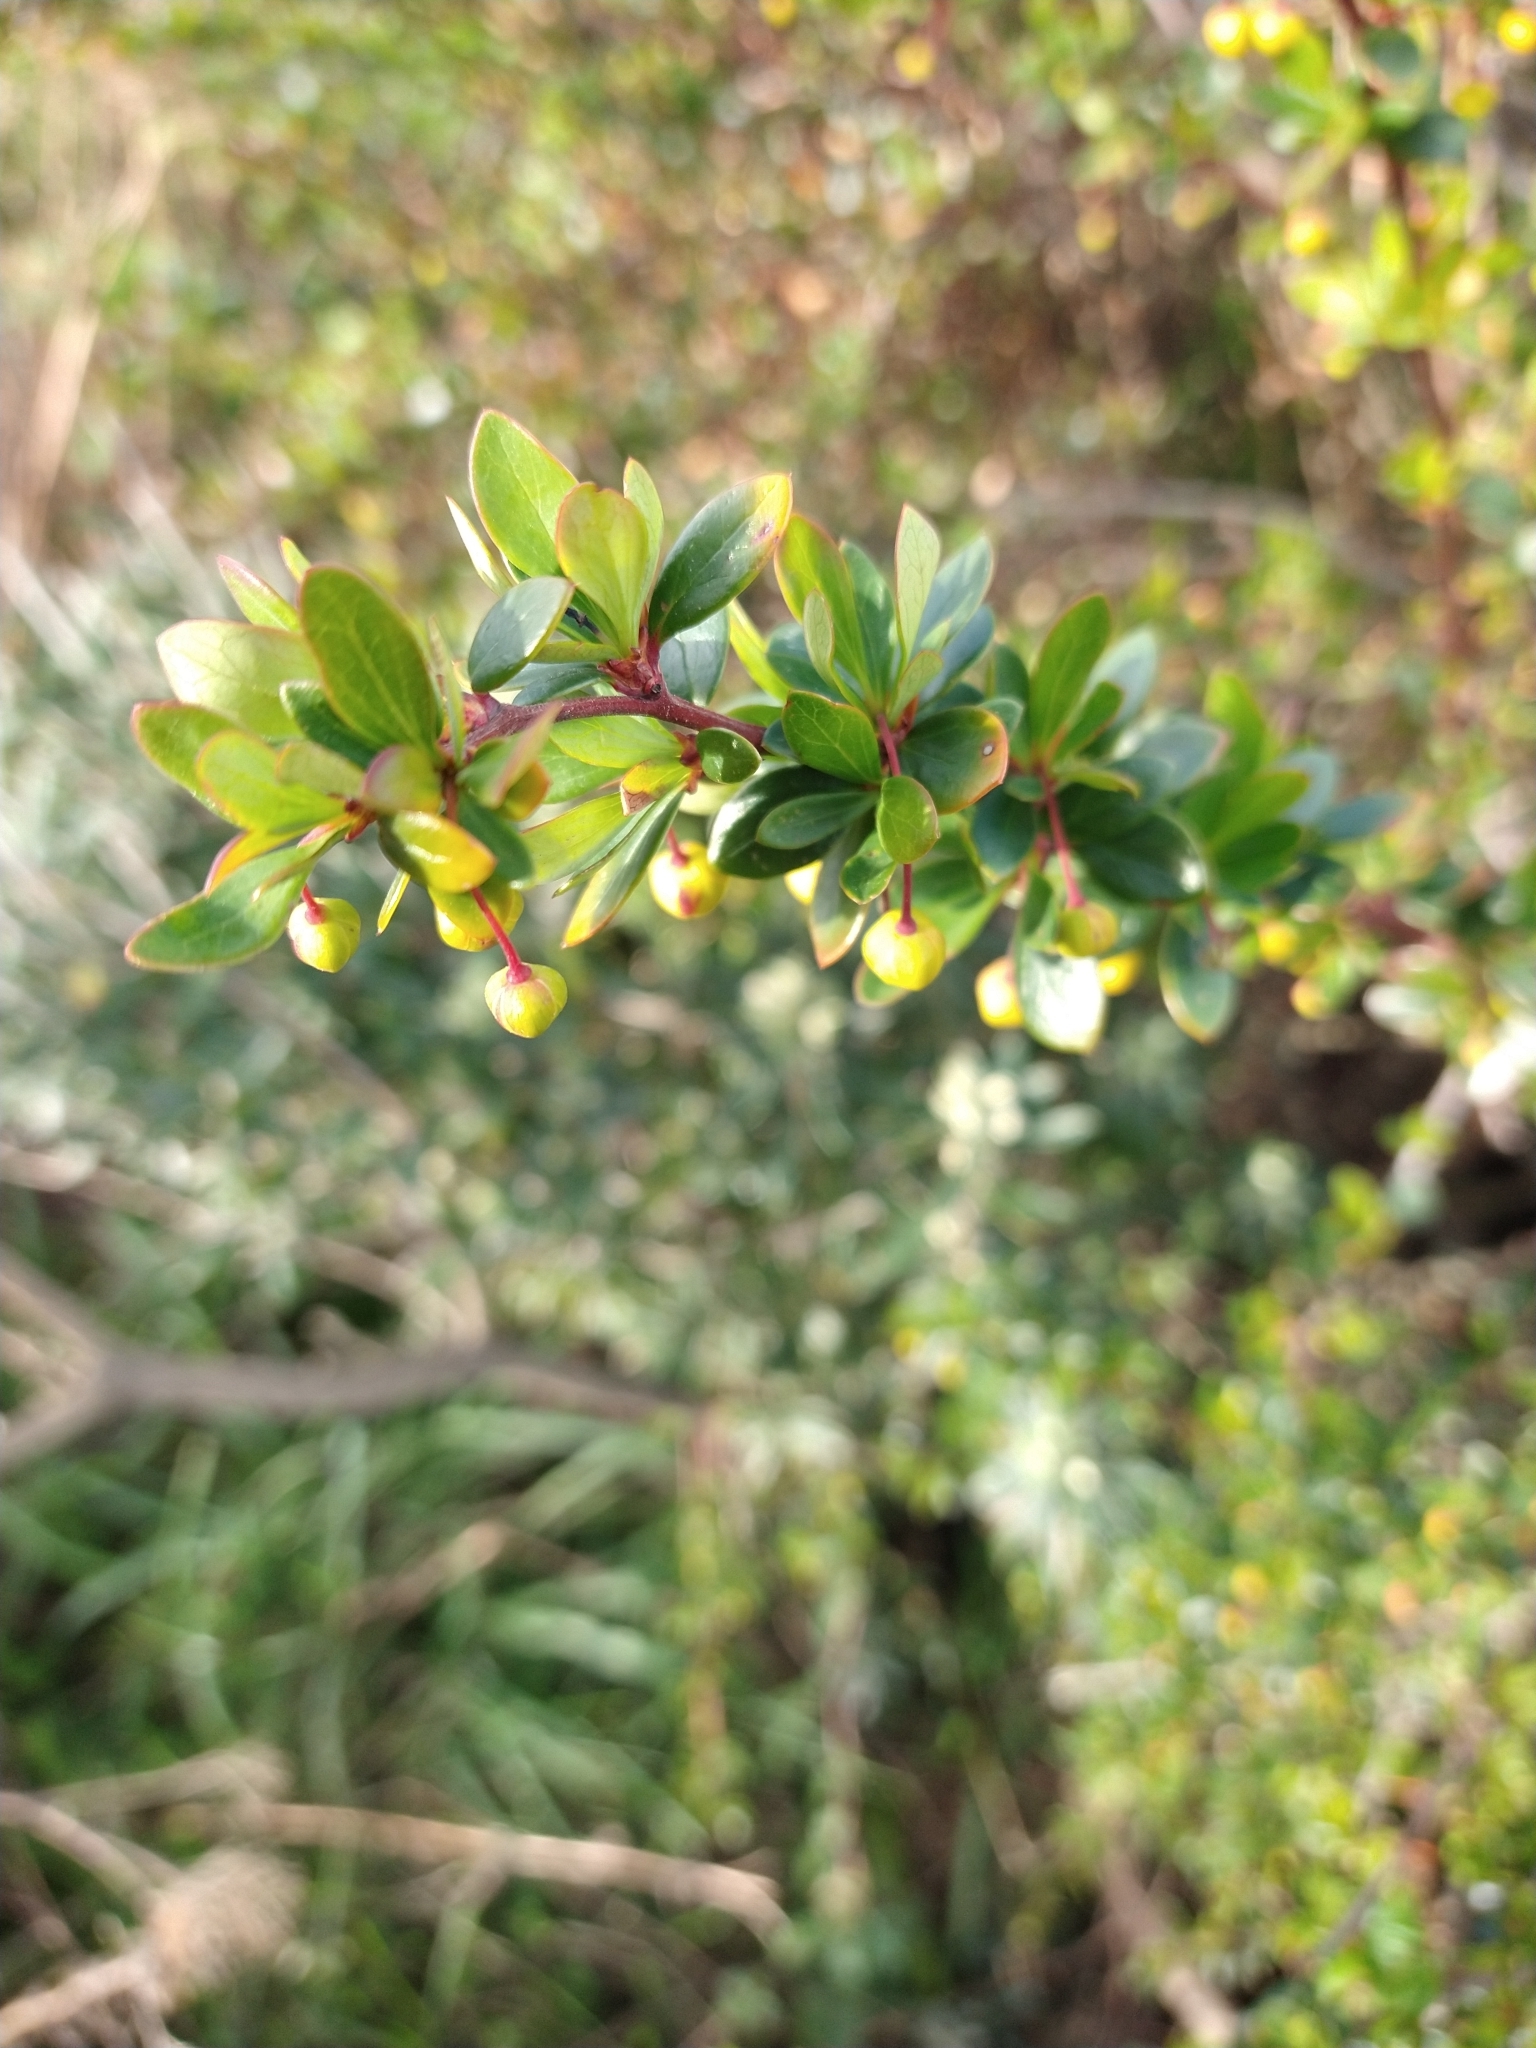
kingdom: Plantae
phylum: Tracheophyta
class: Magnoliopsida
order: Ranunculales
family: Berberidaceae
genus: Berberis
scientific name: Berberis microphylla
